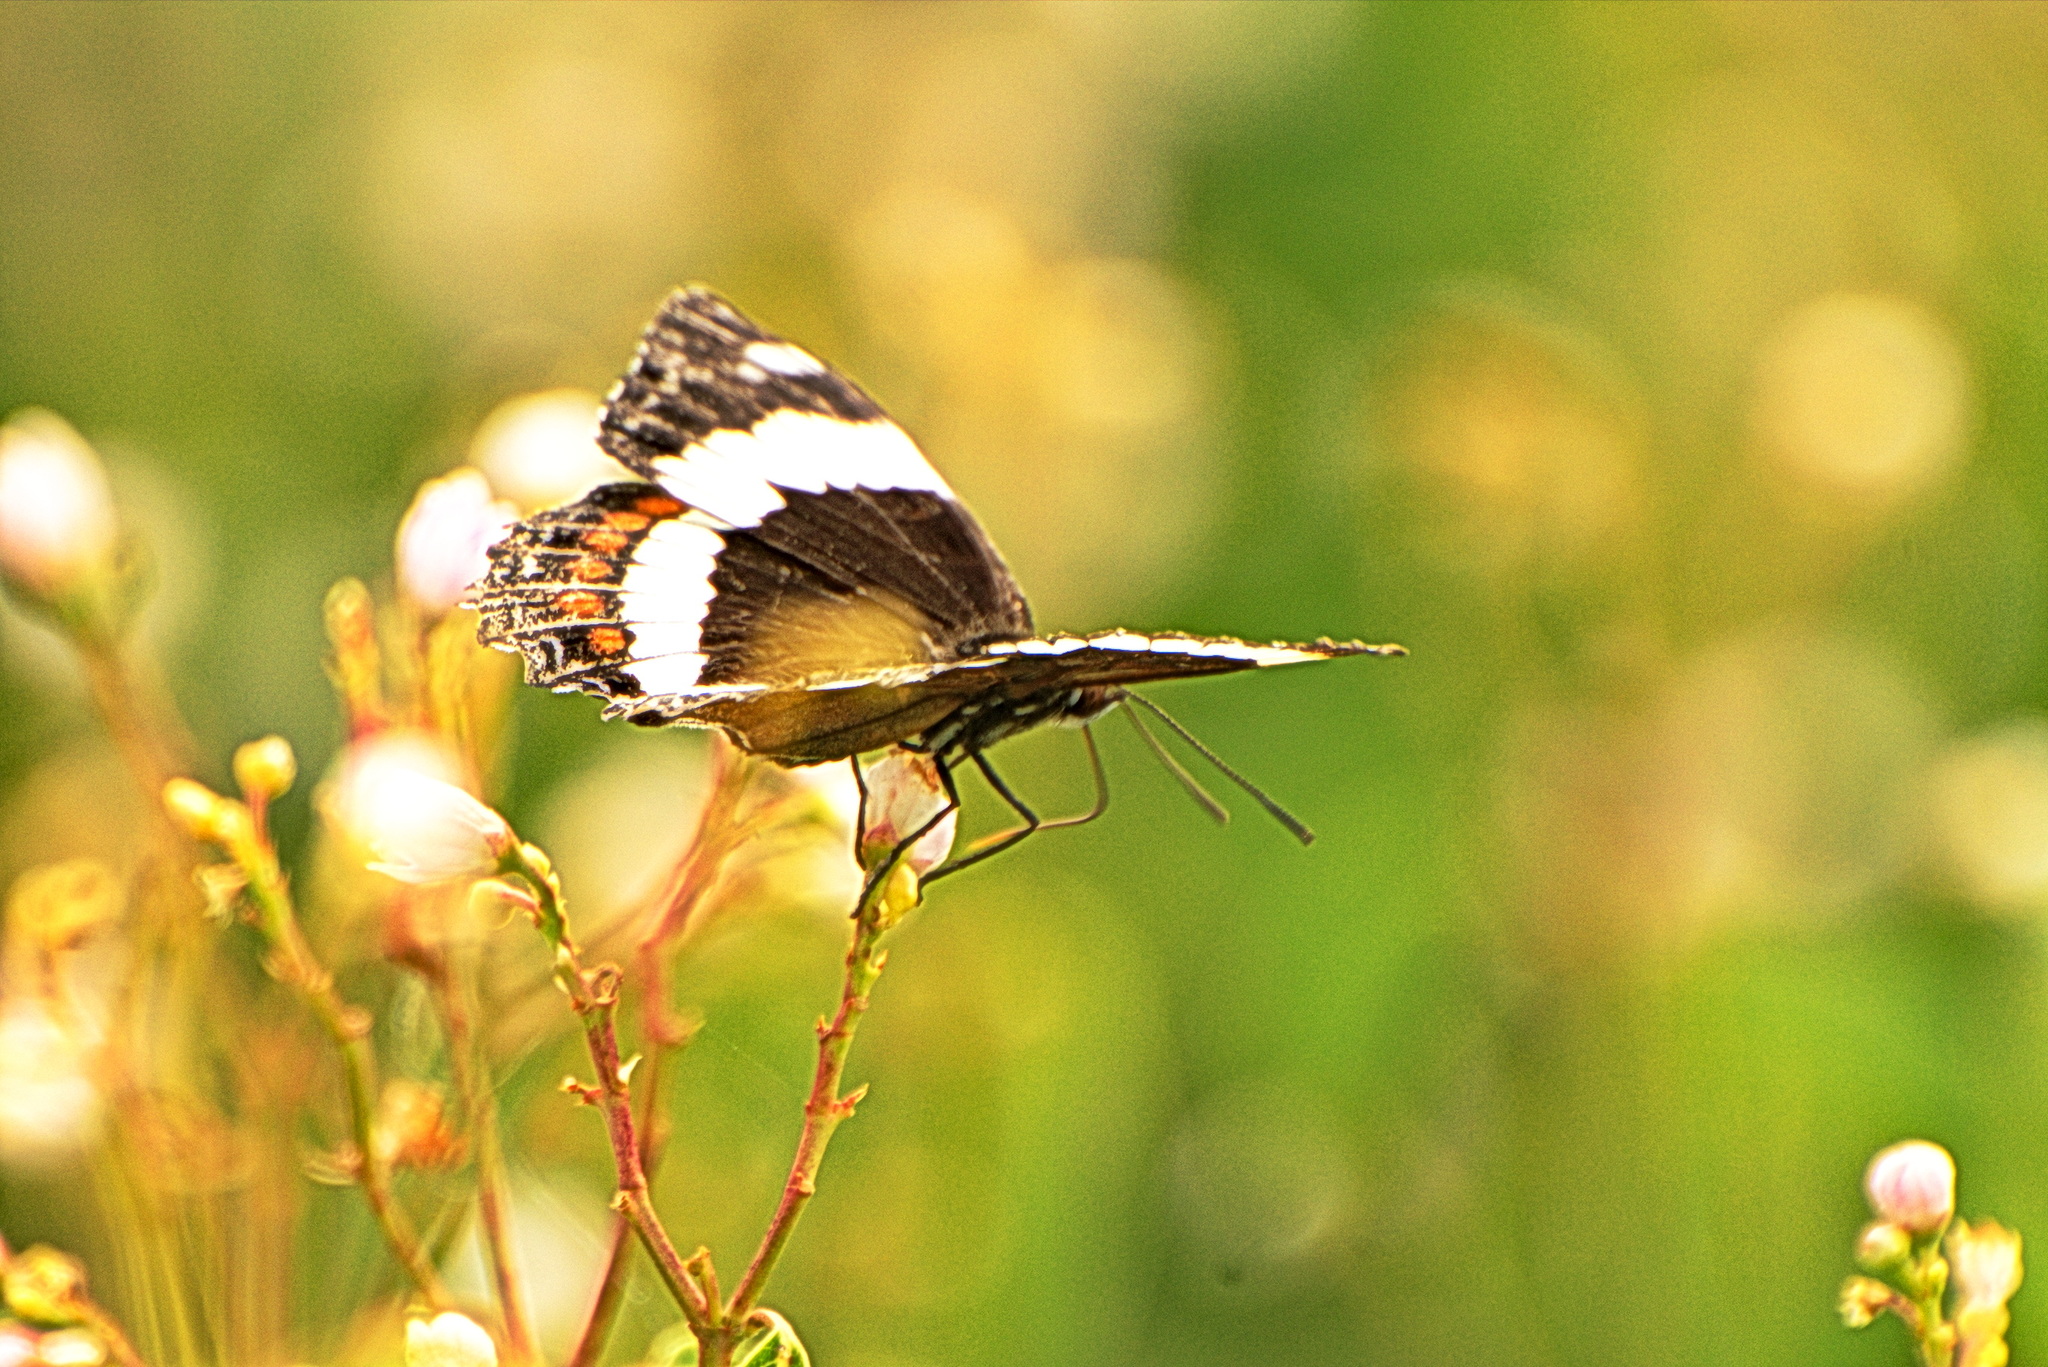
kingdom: Animalia
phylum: Arthropoda
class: Insecta
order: Lepidoptera
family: Nymphalidae
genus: Limenitis
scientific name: Limenitis arthemis
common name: Red-spotted admiral
